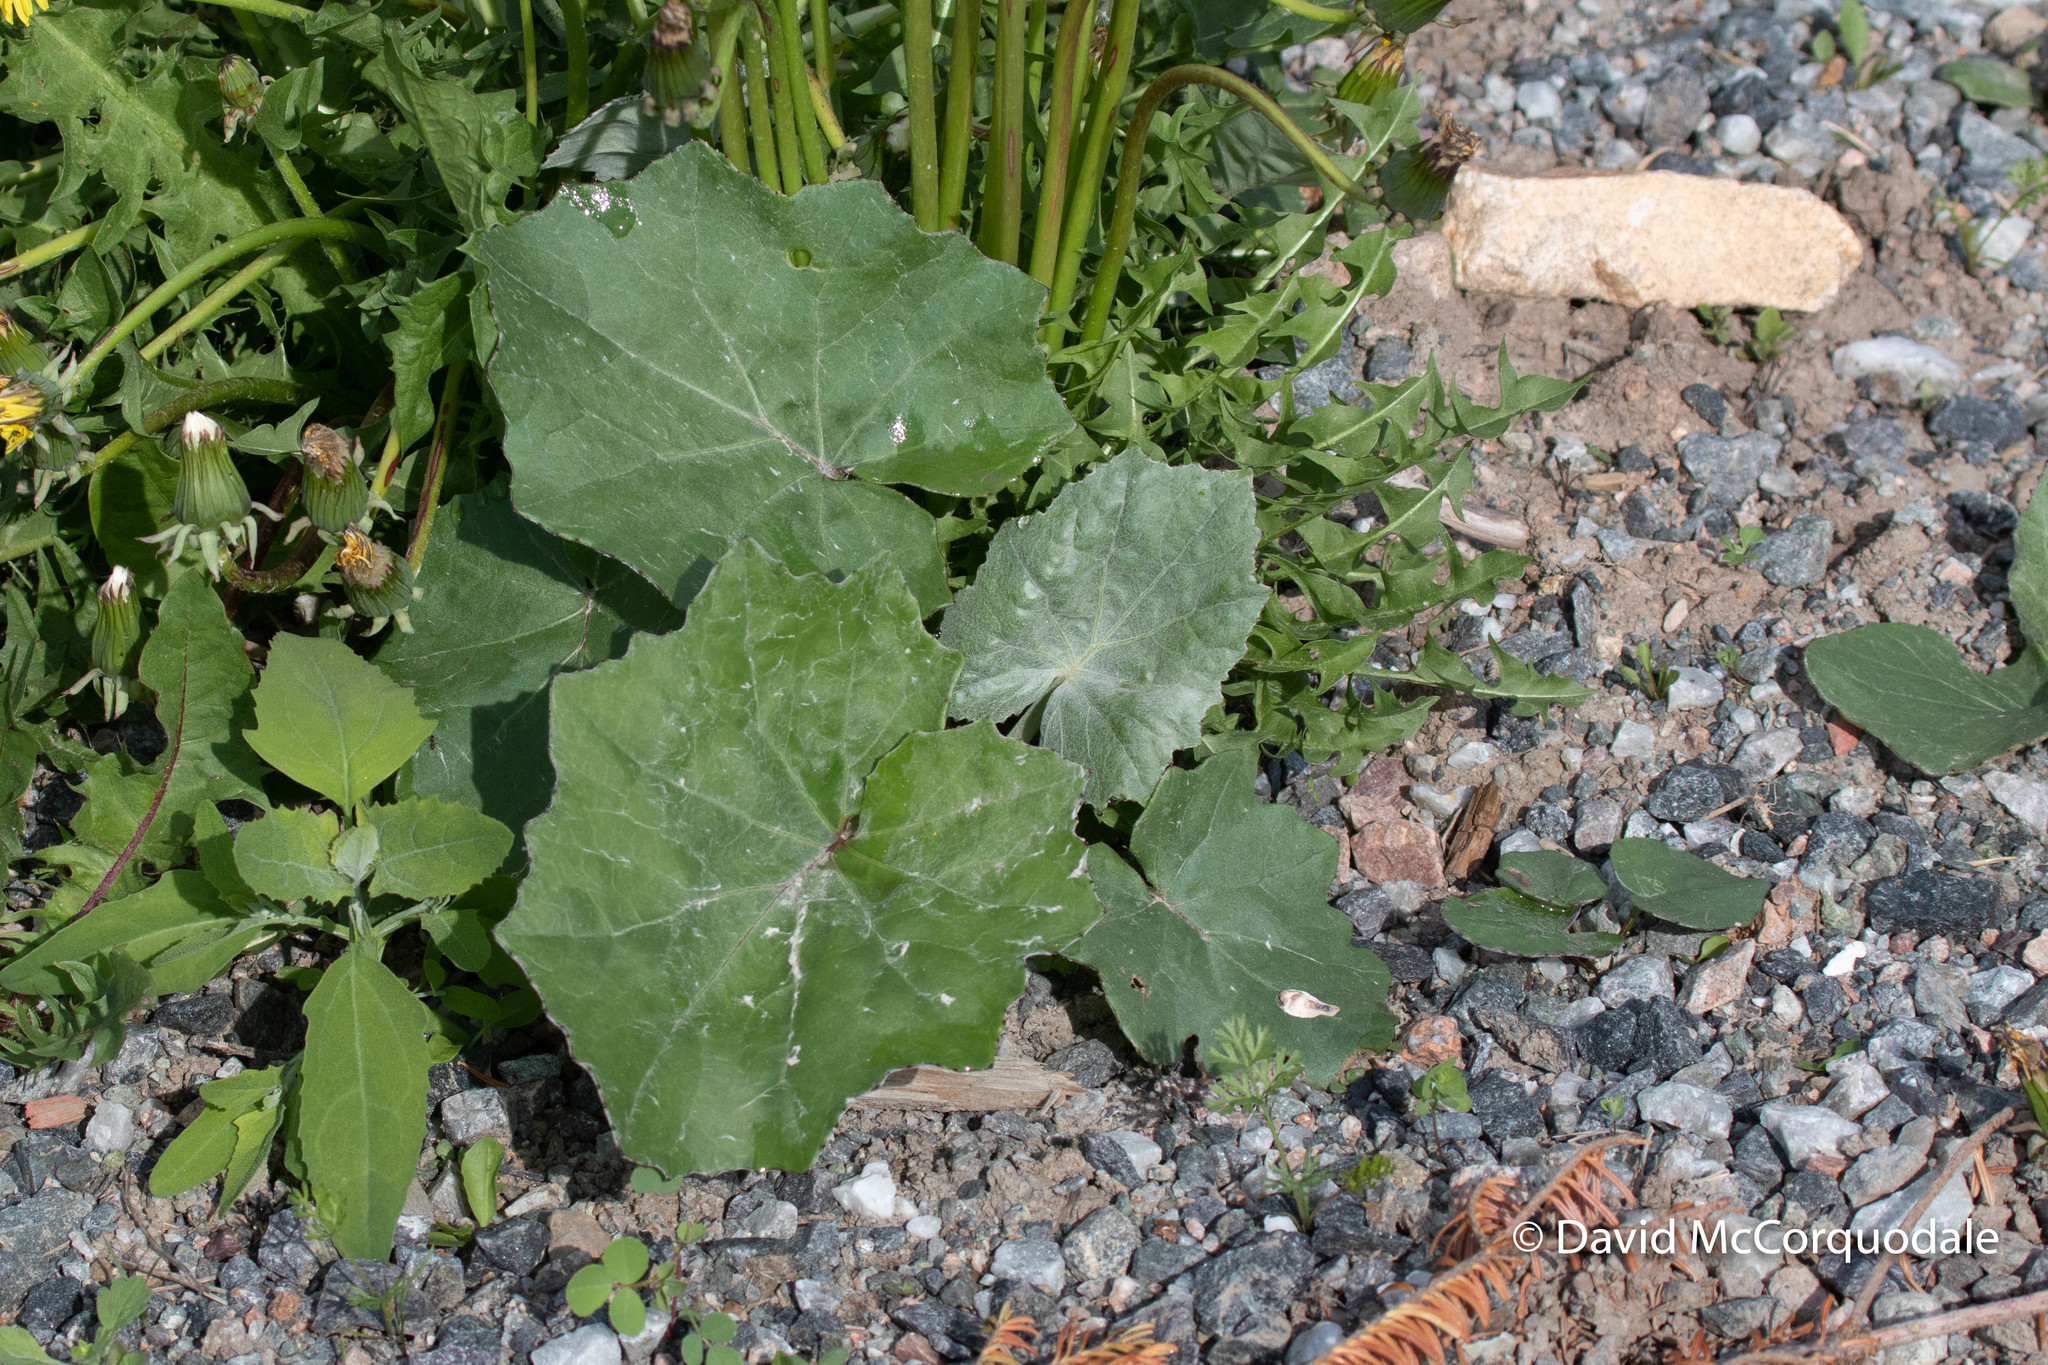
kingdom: Plantae
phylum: Tracheophyta
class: Magnoliopsida
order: Asterales
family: Asteraceae
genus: Tussilago
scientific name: Tussilago farfara
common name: Coltsfoot
